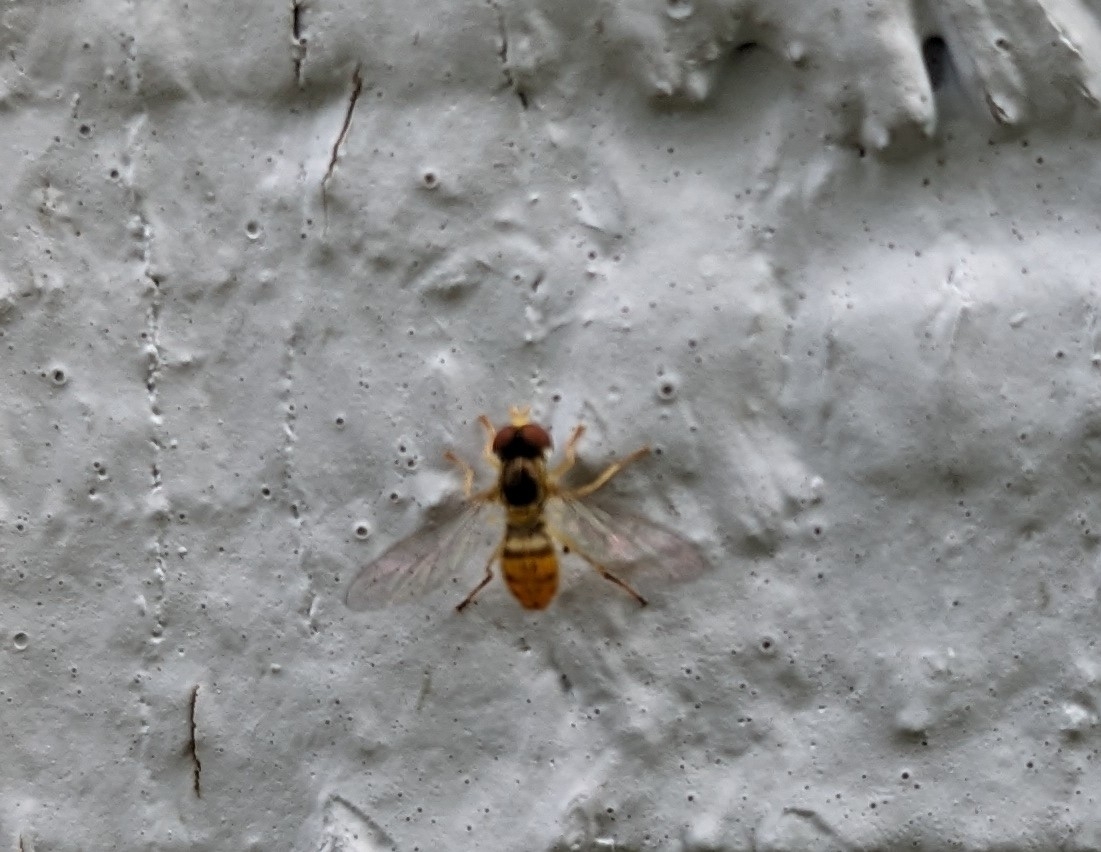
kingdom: Animalia
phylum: Arthropoda
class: Insecta
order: Diptera
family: Syrphidae
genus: Toxomerus
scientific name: Toxomerus marginatus
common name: Syrphid fly
